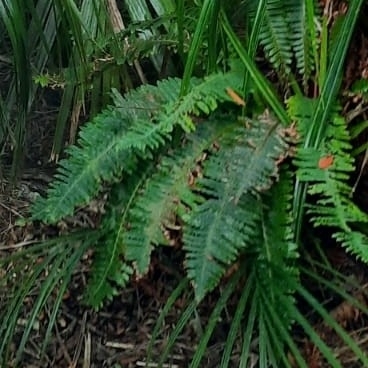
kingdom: Plantae
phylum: Tracheophyta
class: Polypodiopsida
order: Polypodiales
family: Blechnaceae
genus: Lomaria
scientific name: Lomaria discolor
